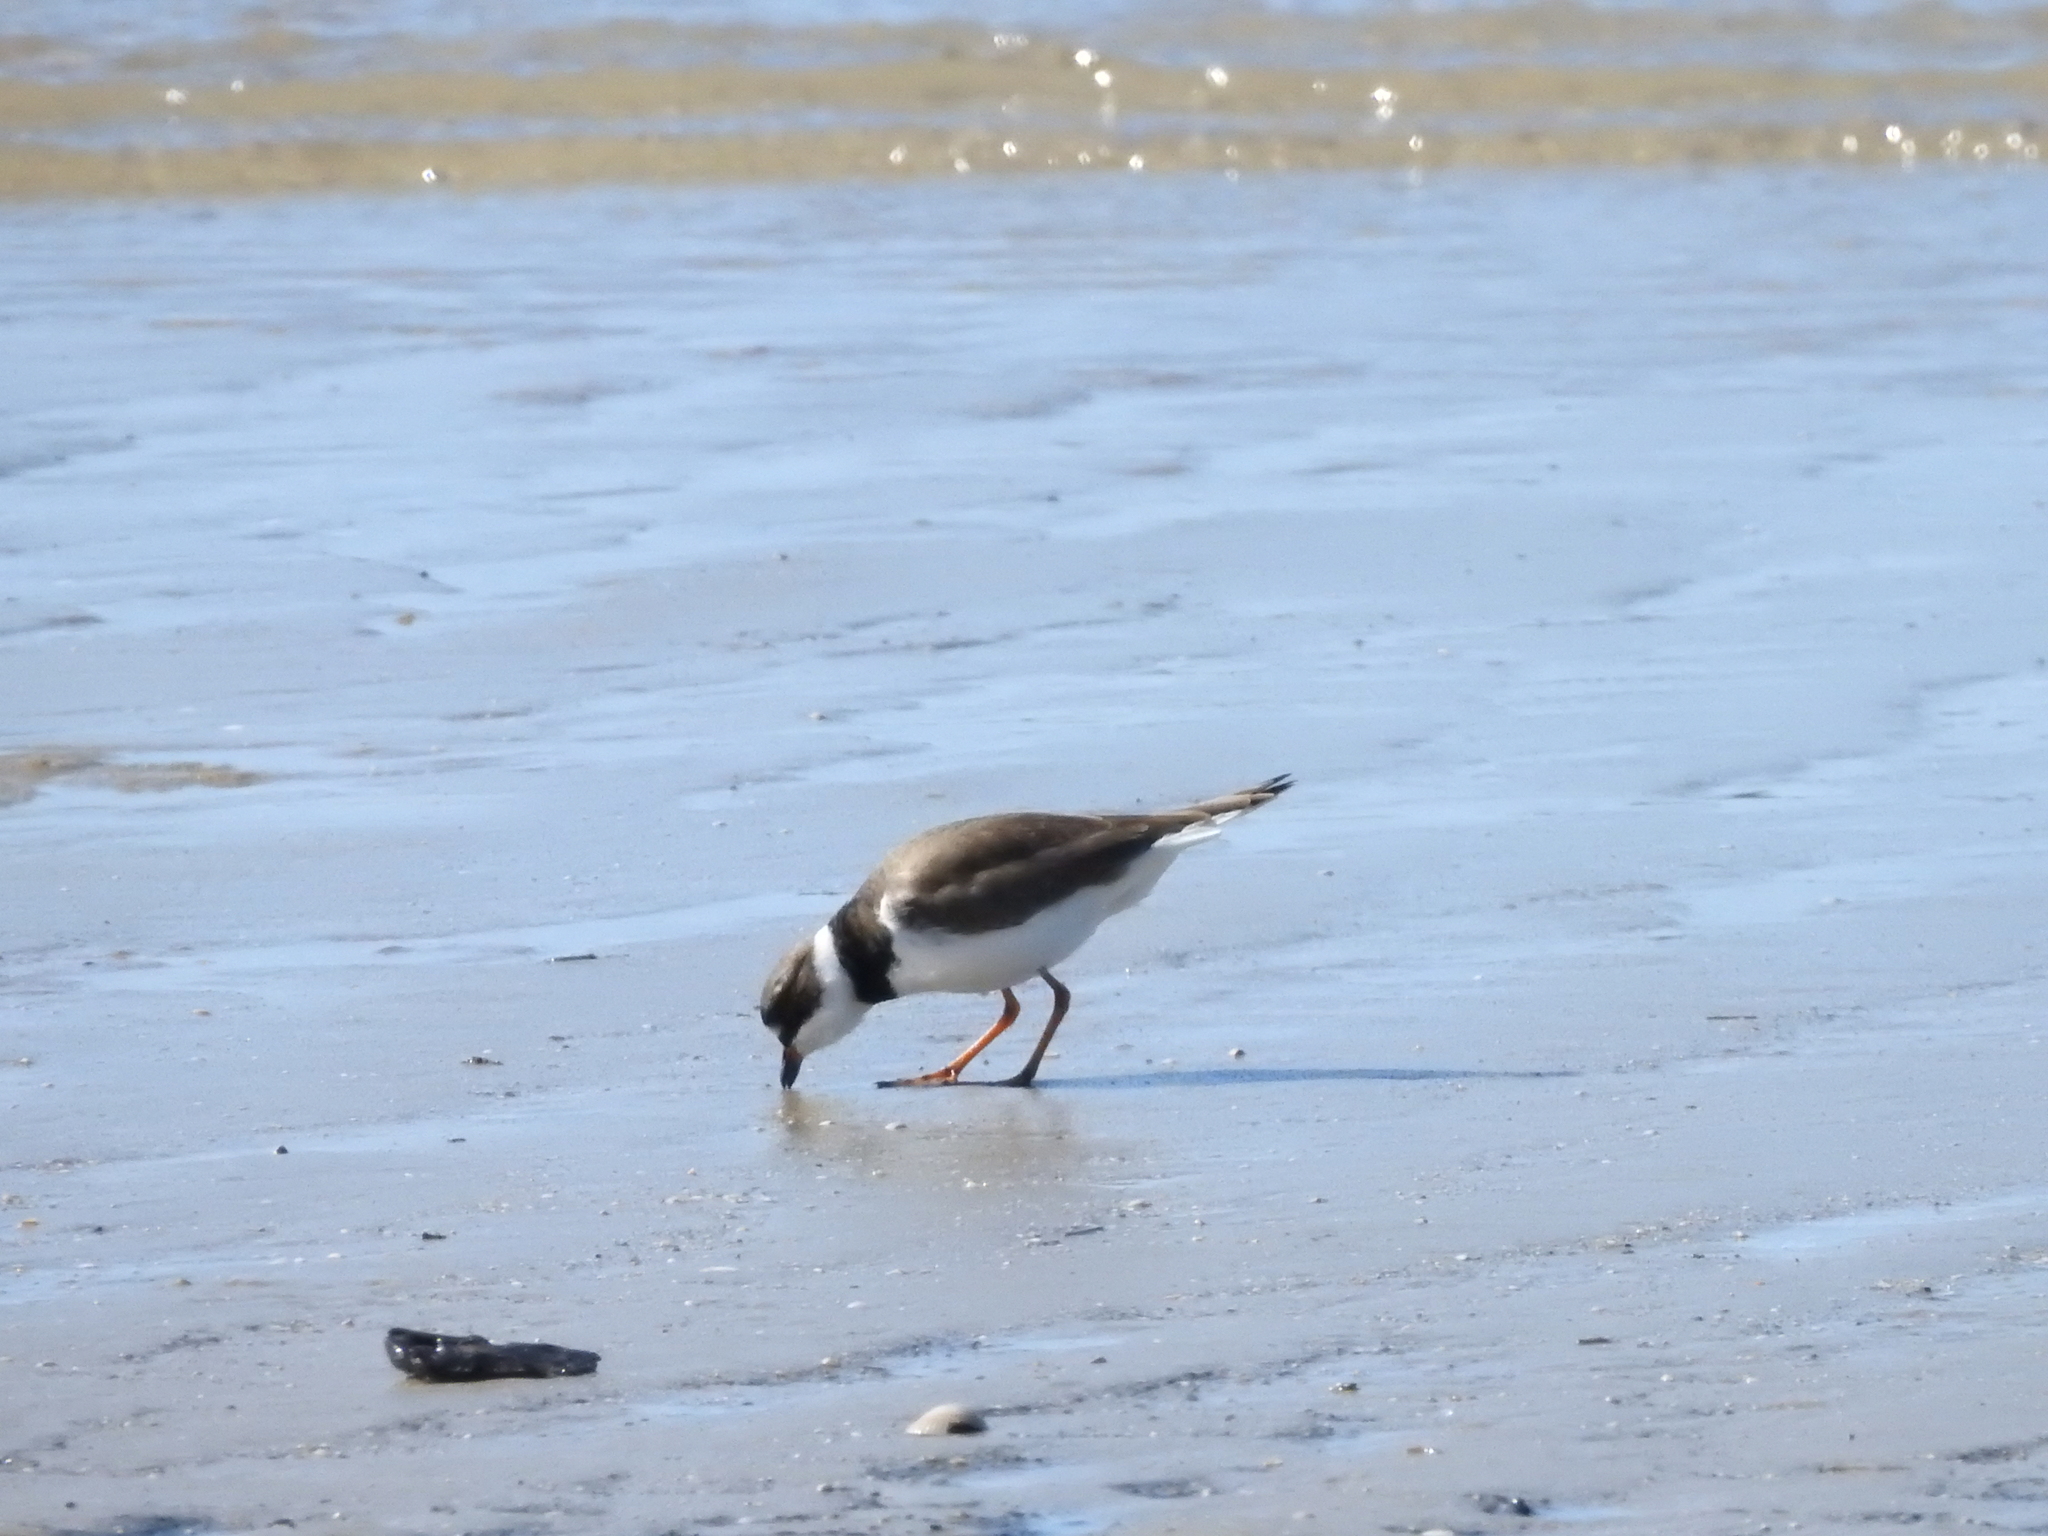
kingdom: Animalia
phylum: Chordata
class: Aves
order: Charadriiformes
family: Charadriidae
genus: Charadrius
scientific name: Charadrius semipalmatus
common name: Semipalmated plover
